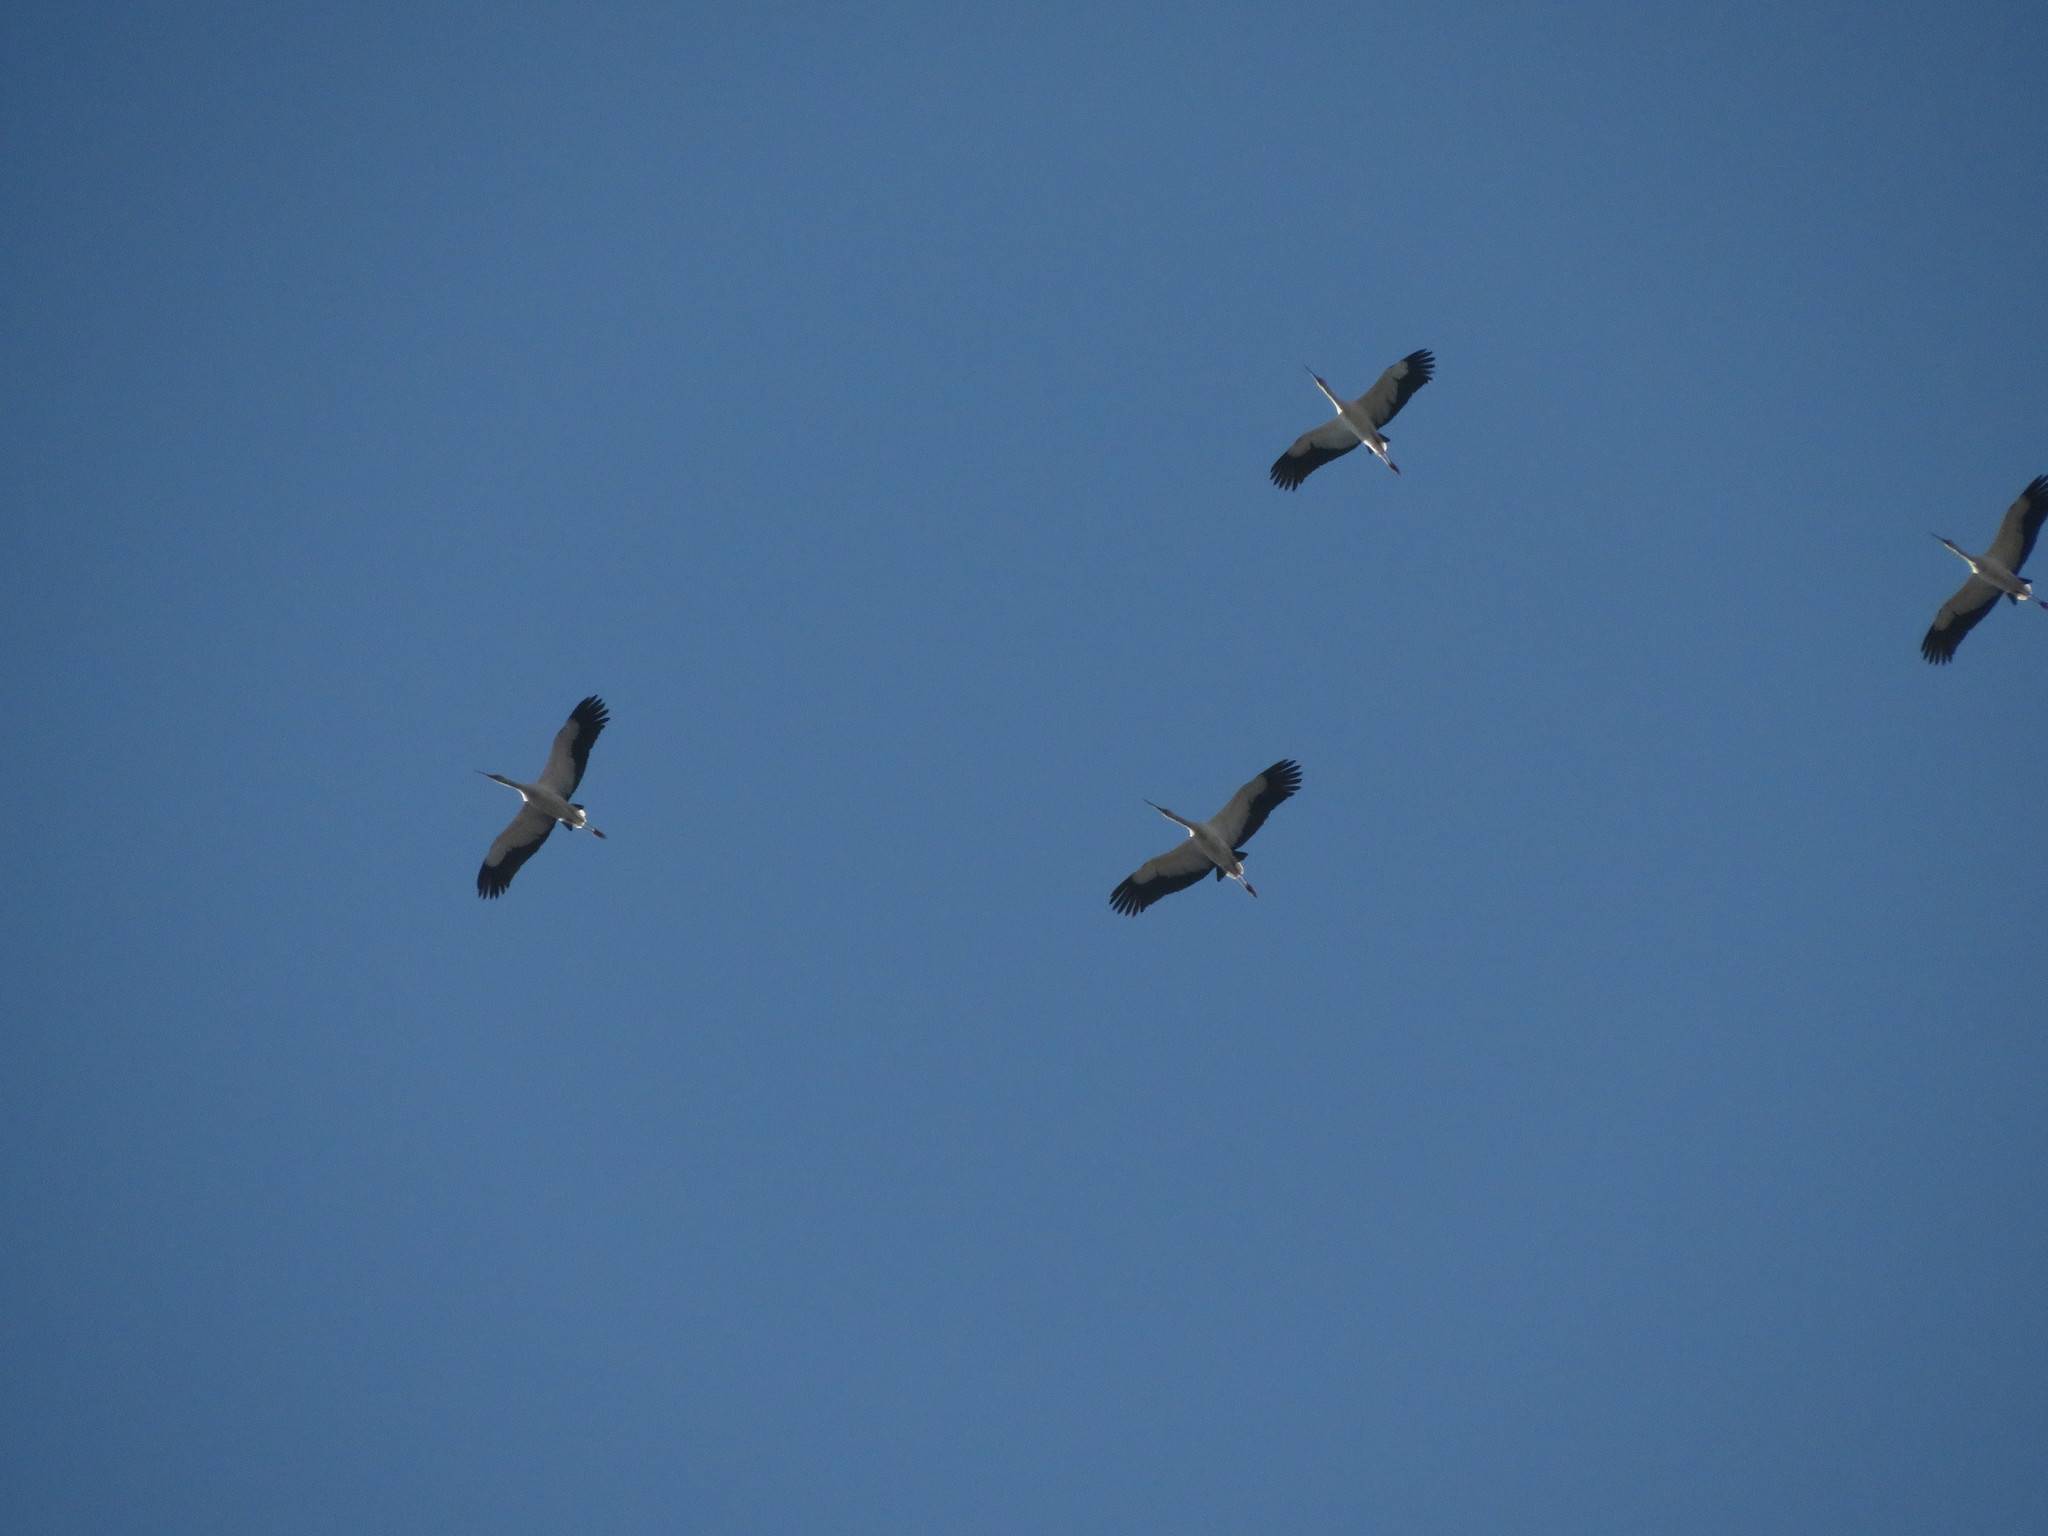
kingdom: Animalia
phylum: Chordata
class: Aves
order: Ciconiiformes
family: Ciconiidae
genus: Ciconia
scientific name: Ciconia maguari
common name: Maguari stork
